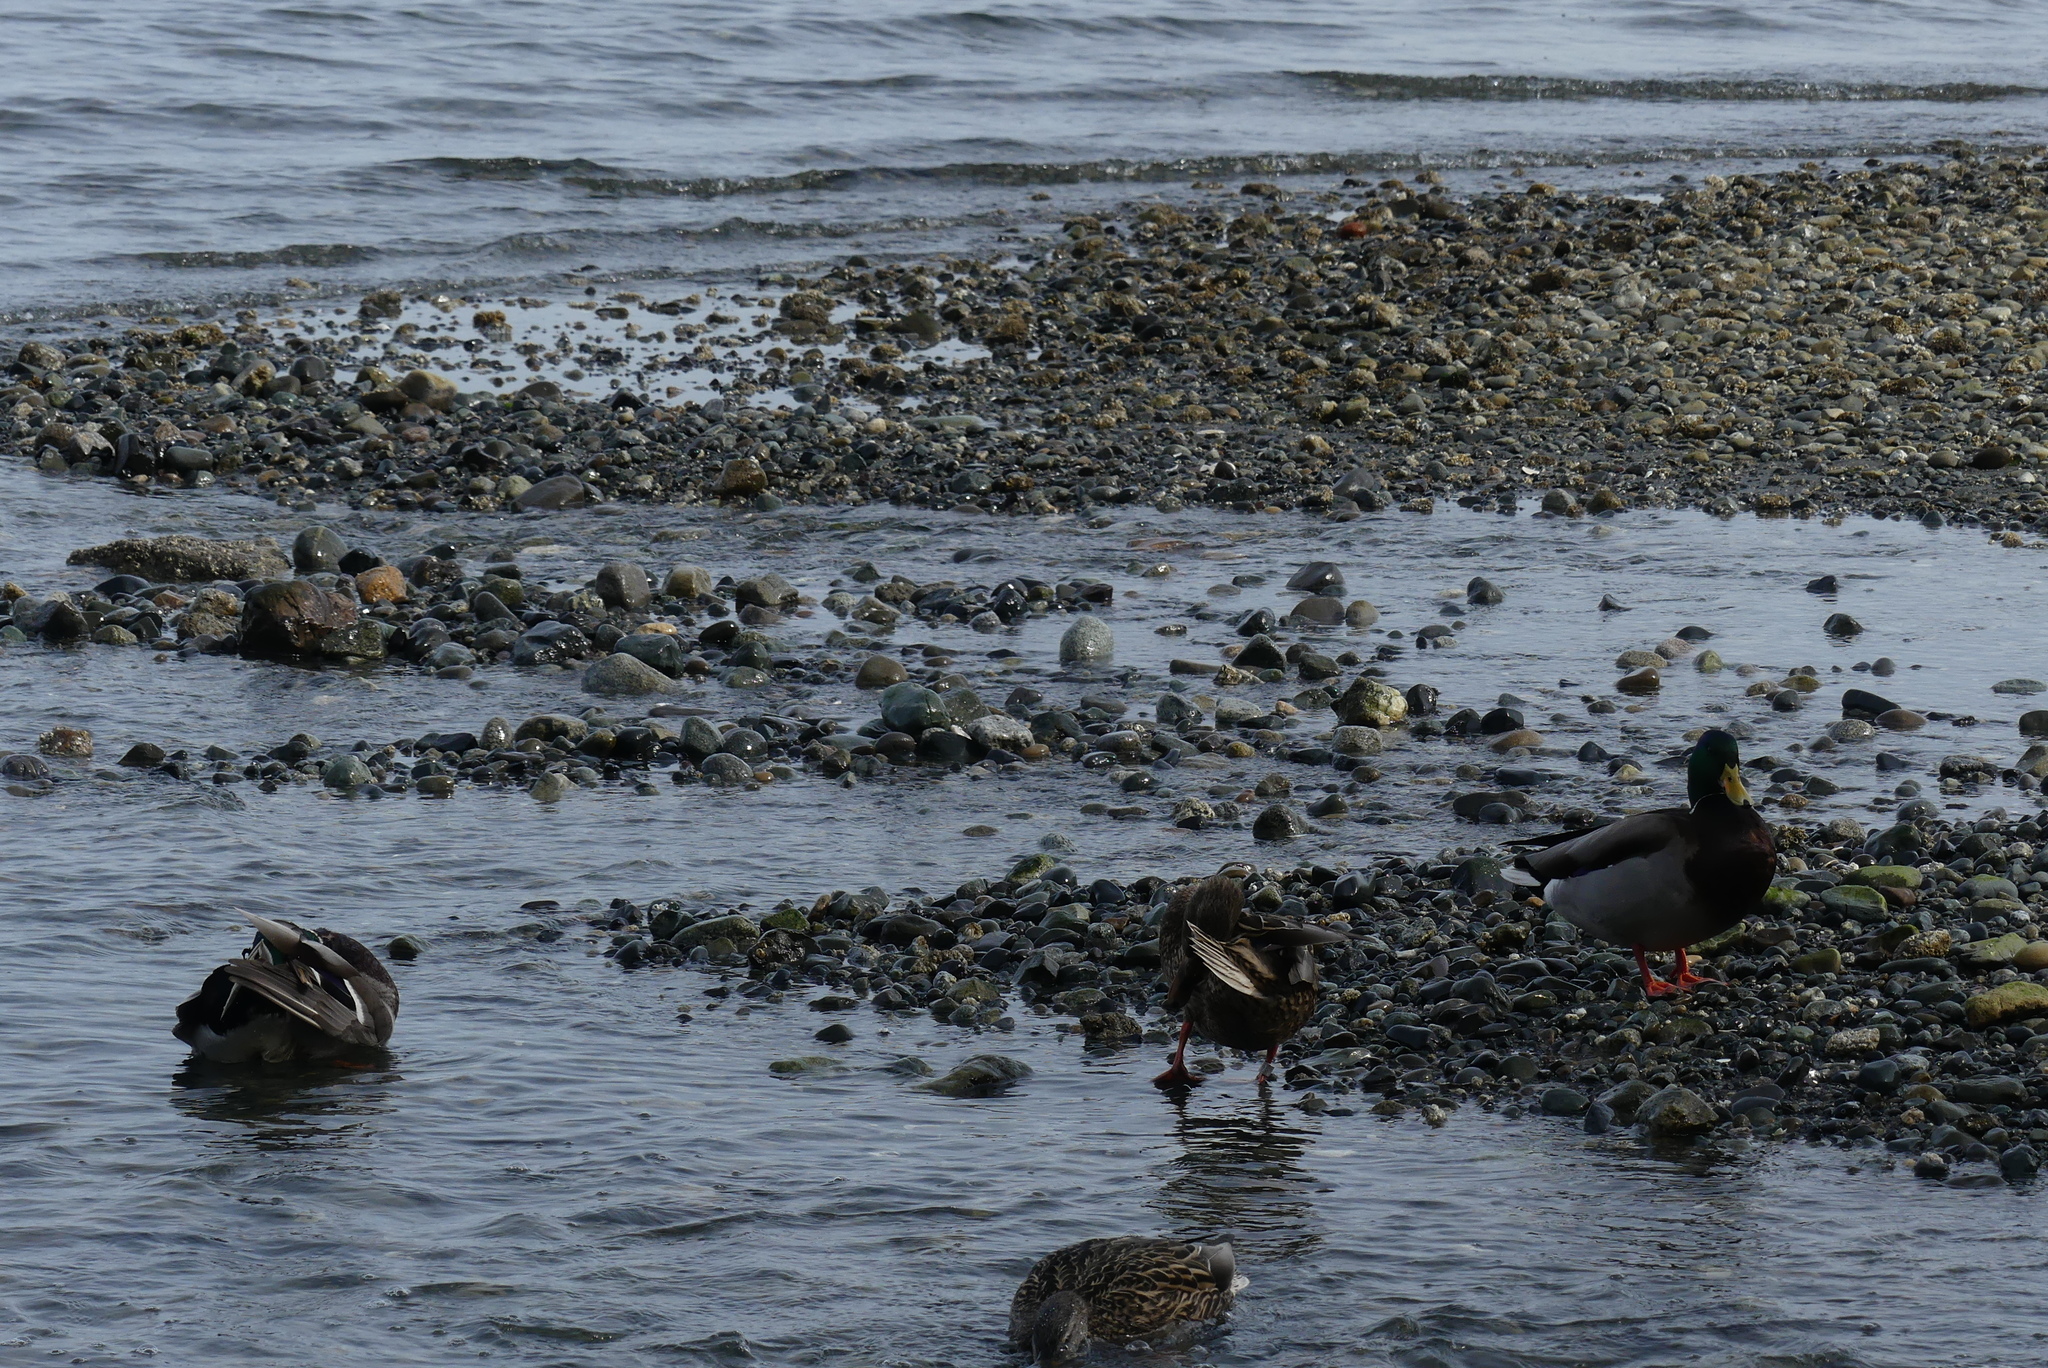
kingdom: Animalia
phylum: Chordata
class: Aves
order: Anseriformes
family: Anatidae
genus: Anas
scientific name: Anas platyrhynchos
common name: Mallard
